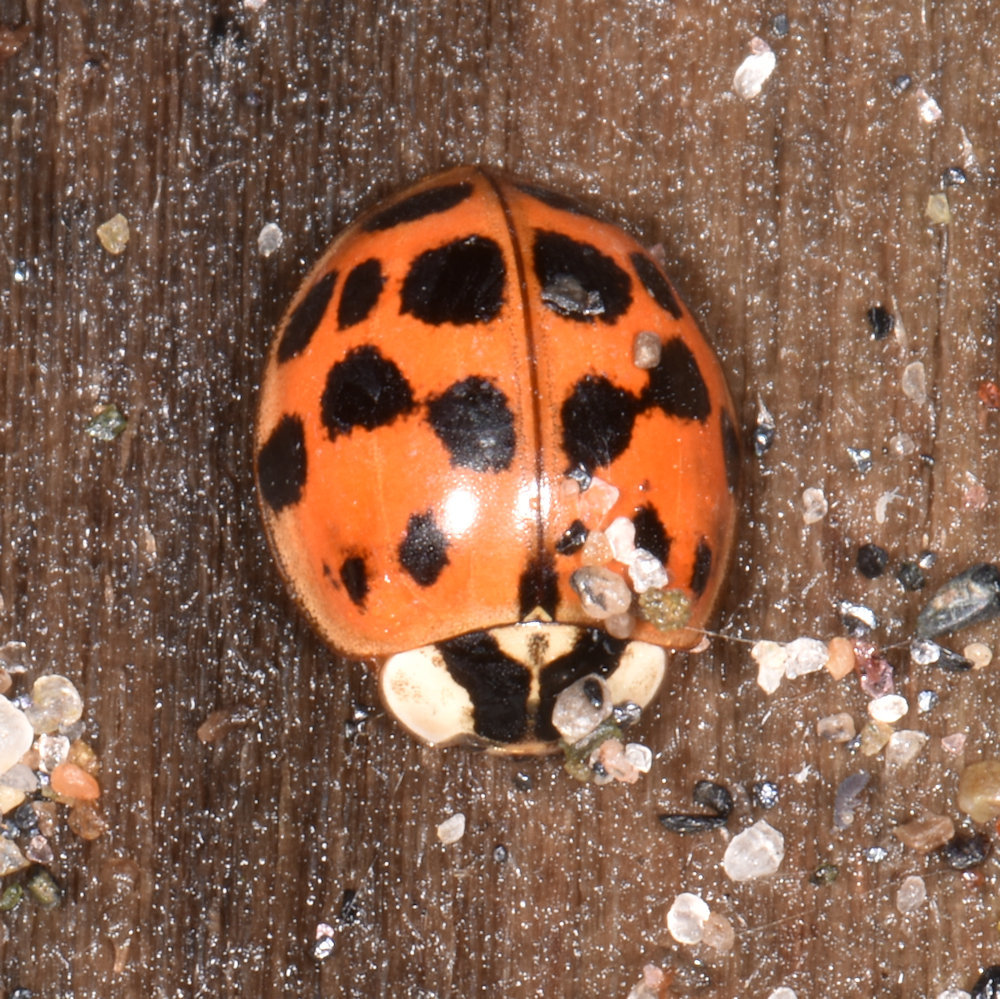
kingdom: Animalia
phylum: Arthropoda
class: Insecta
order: Coleoptera
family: Coccinellidae
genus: Harmonia
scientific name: Harmonia axyridis
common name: Harlequin ladybird
